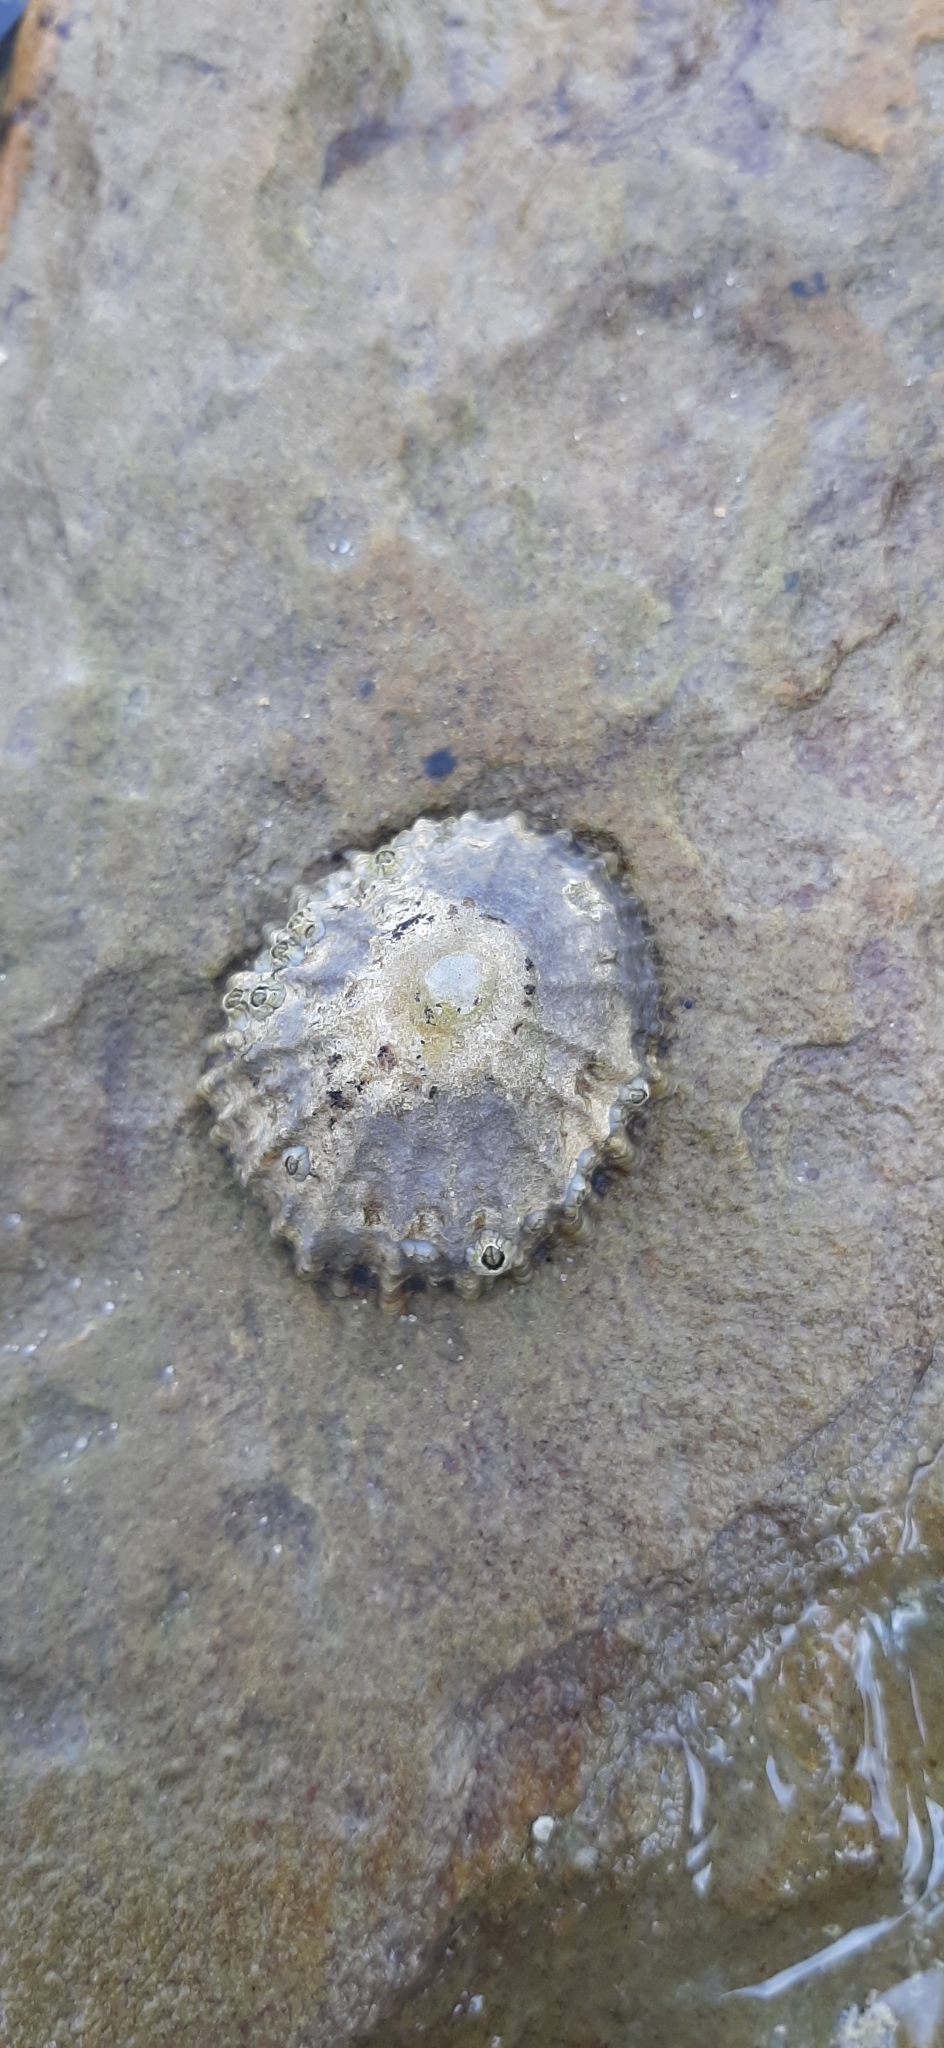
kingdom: Animalia
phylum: Mollusca
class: Gastropoda
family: Patellidae
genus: Patella
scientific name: Patella
